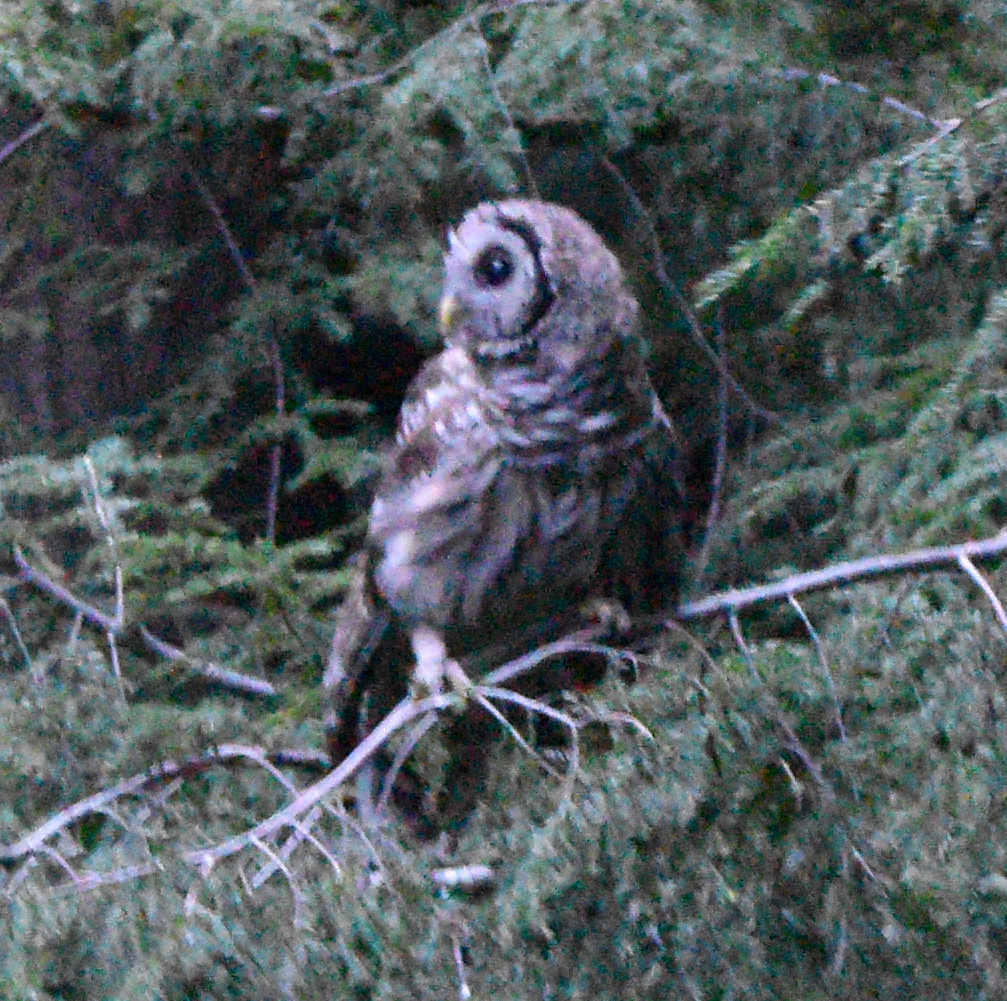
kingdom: Animalia
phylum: Chordata
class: Aves
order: Strigiformes
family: Strigidae
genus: Strix
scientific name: Strix varia
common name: Barred owl
